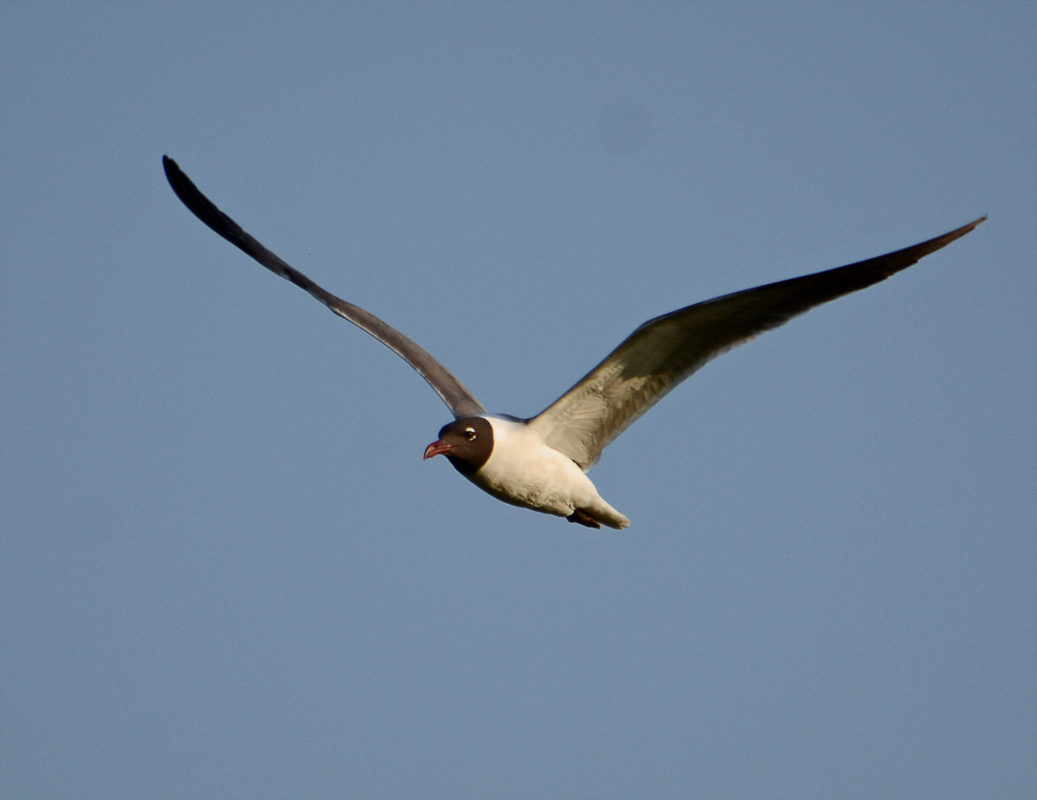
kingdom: Animalia
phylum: Chordata
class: Aves
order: Charadriiformes
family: Laridae
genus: Leucophaeus
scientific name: Leucophaeus atricilla
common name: Laughing gull
